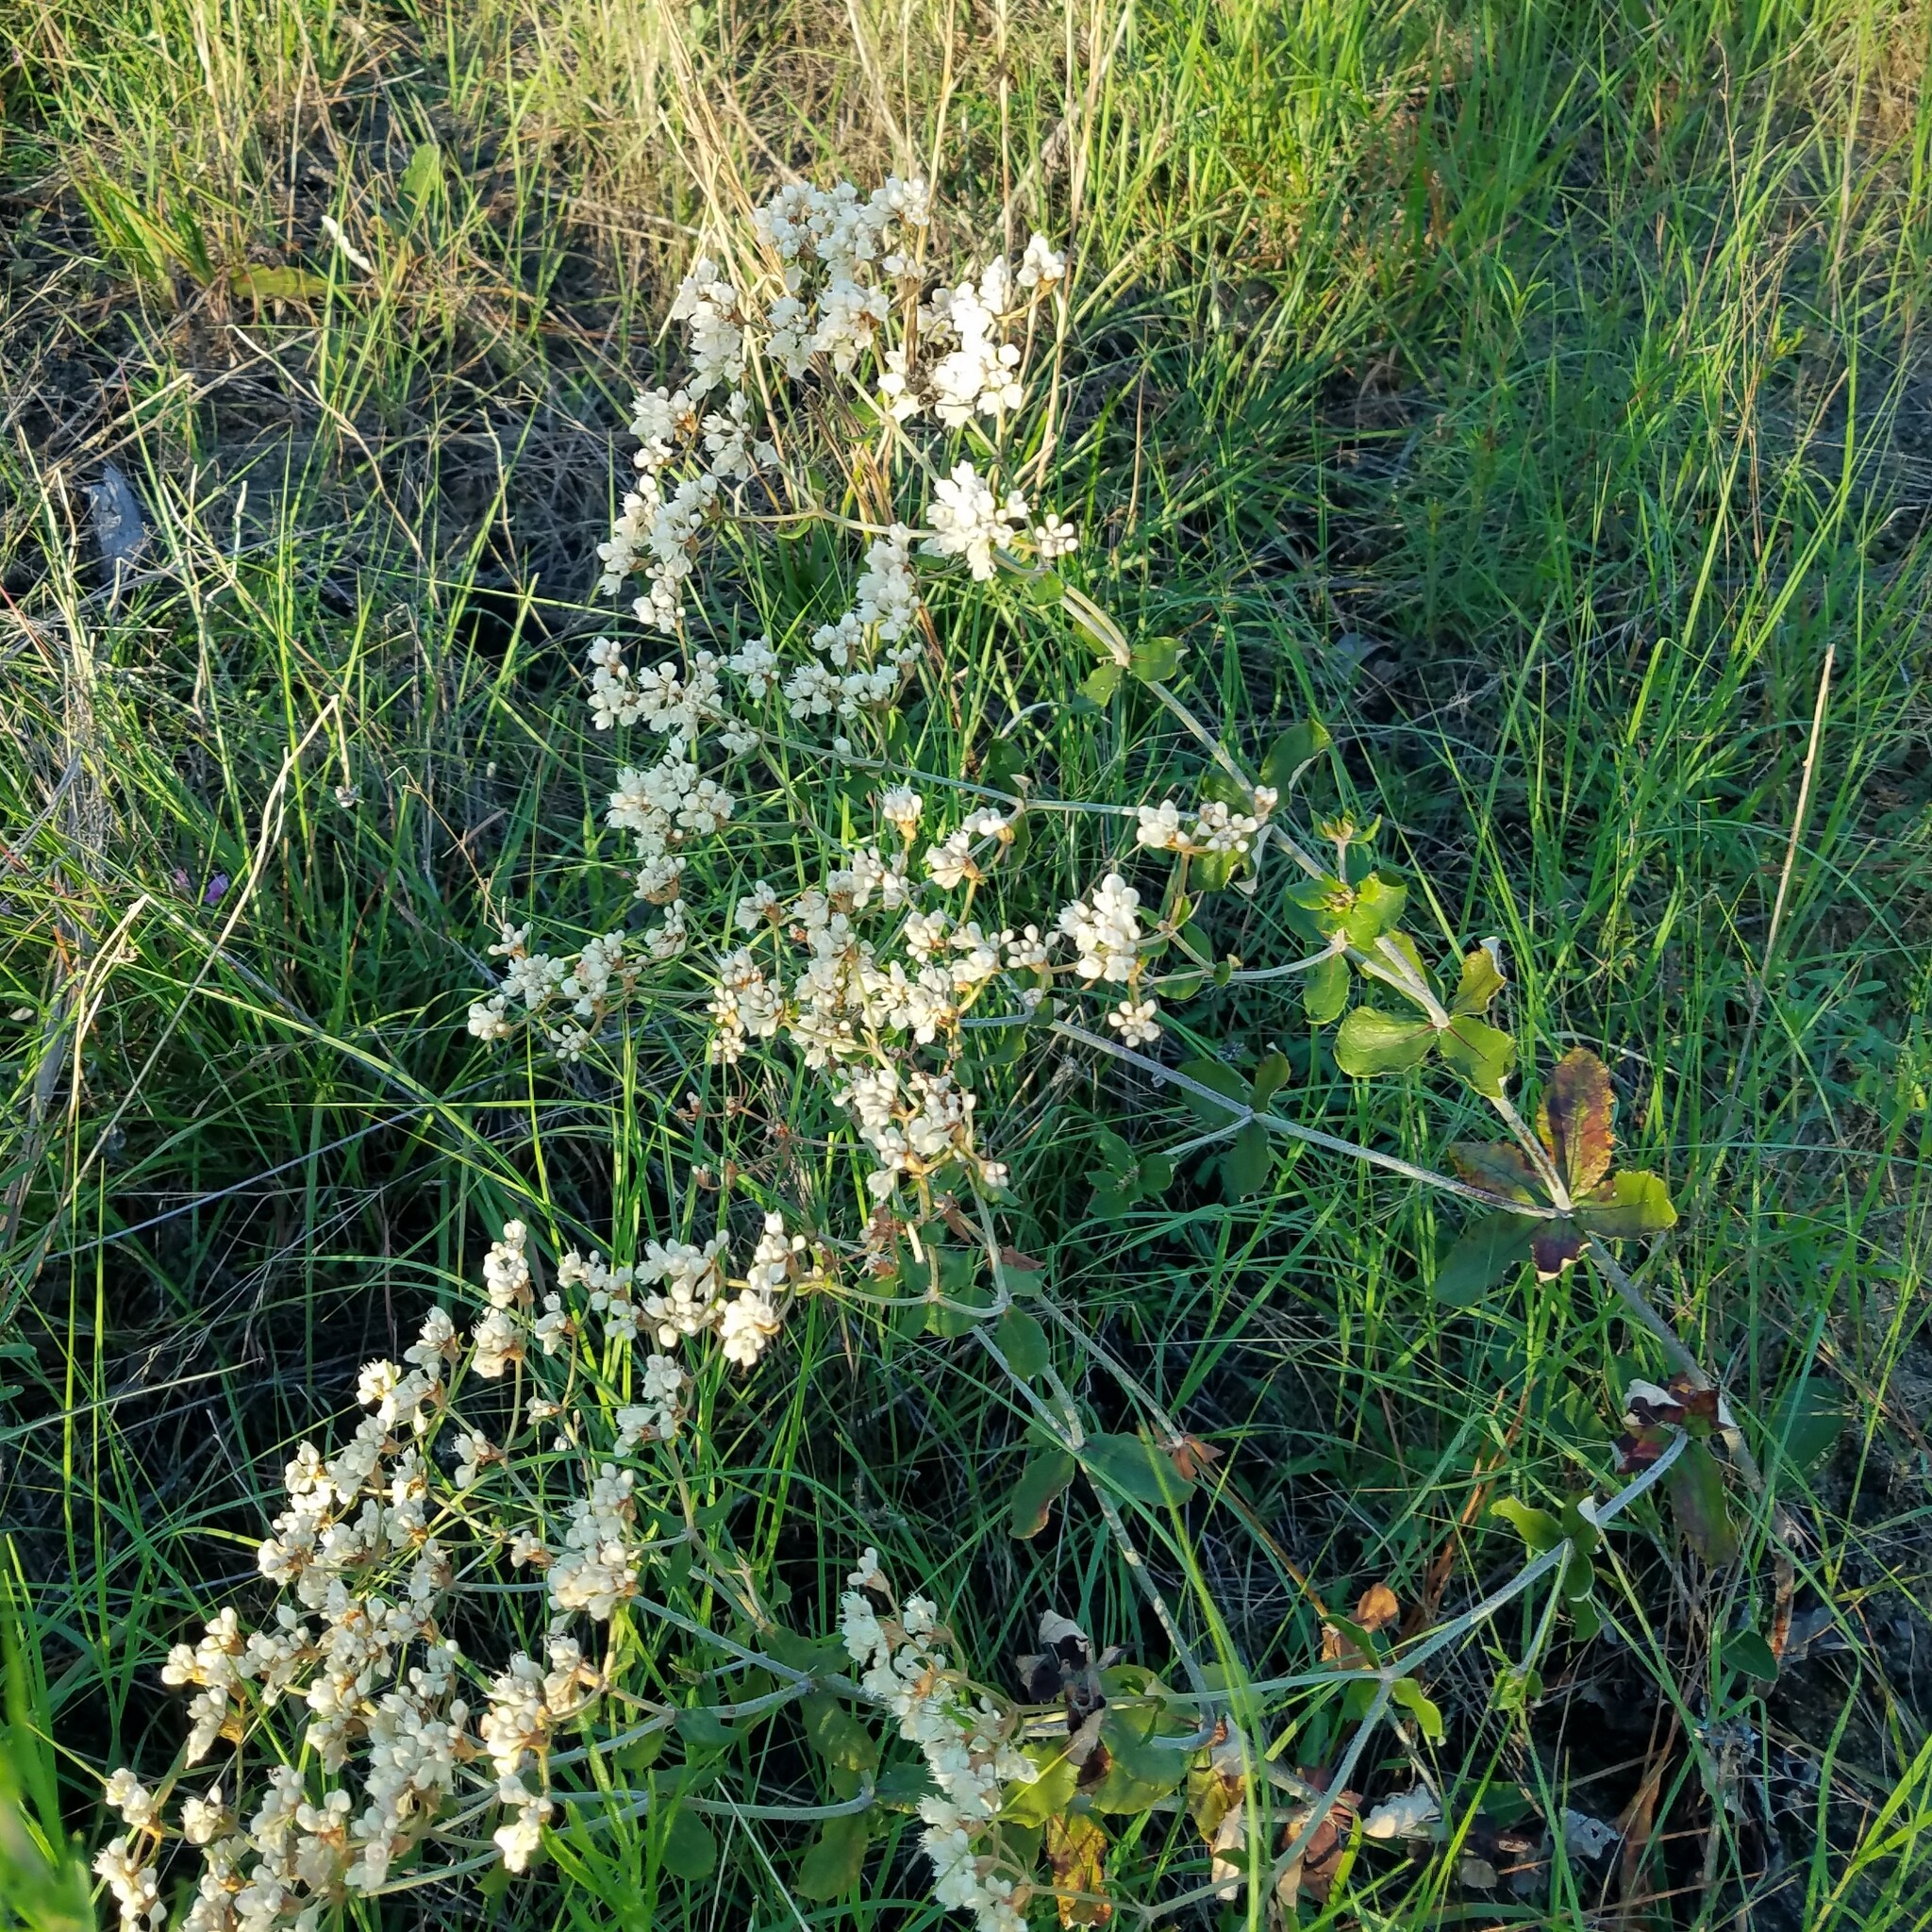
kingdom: Plantae
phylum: Tracheophyta
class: Magnoliopsida
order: Caryophyllales
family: Polygonaceae
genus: Eriogonum
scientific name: Eriogonum tomentosum
